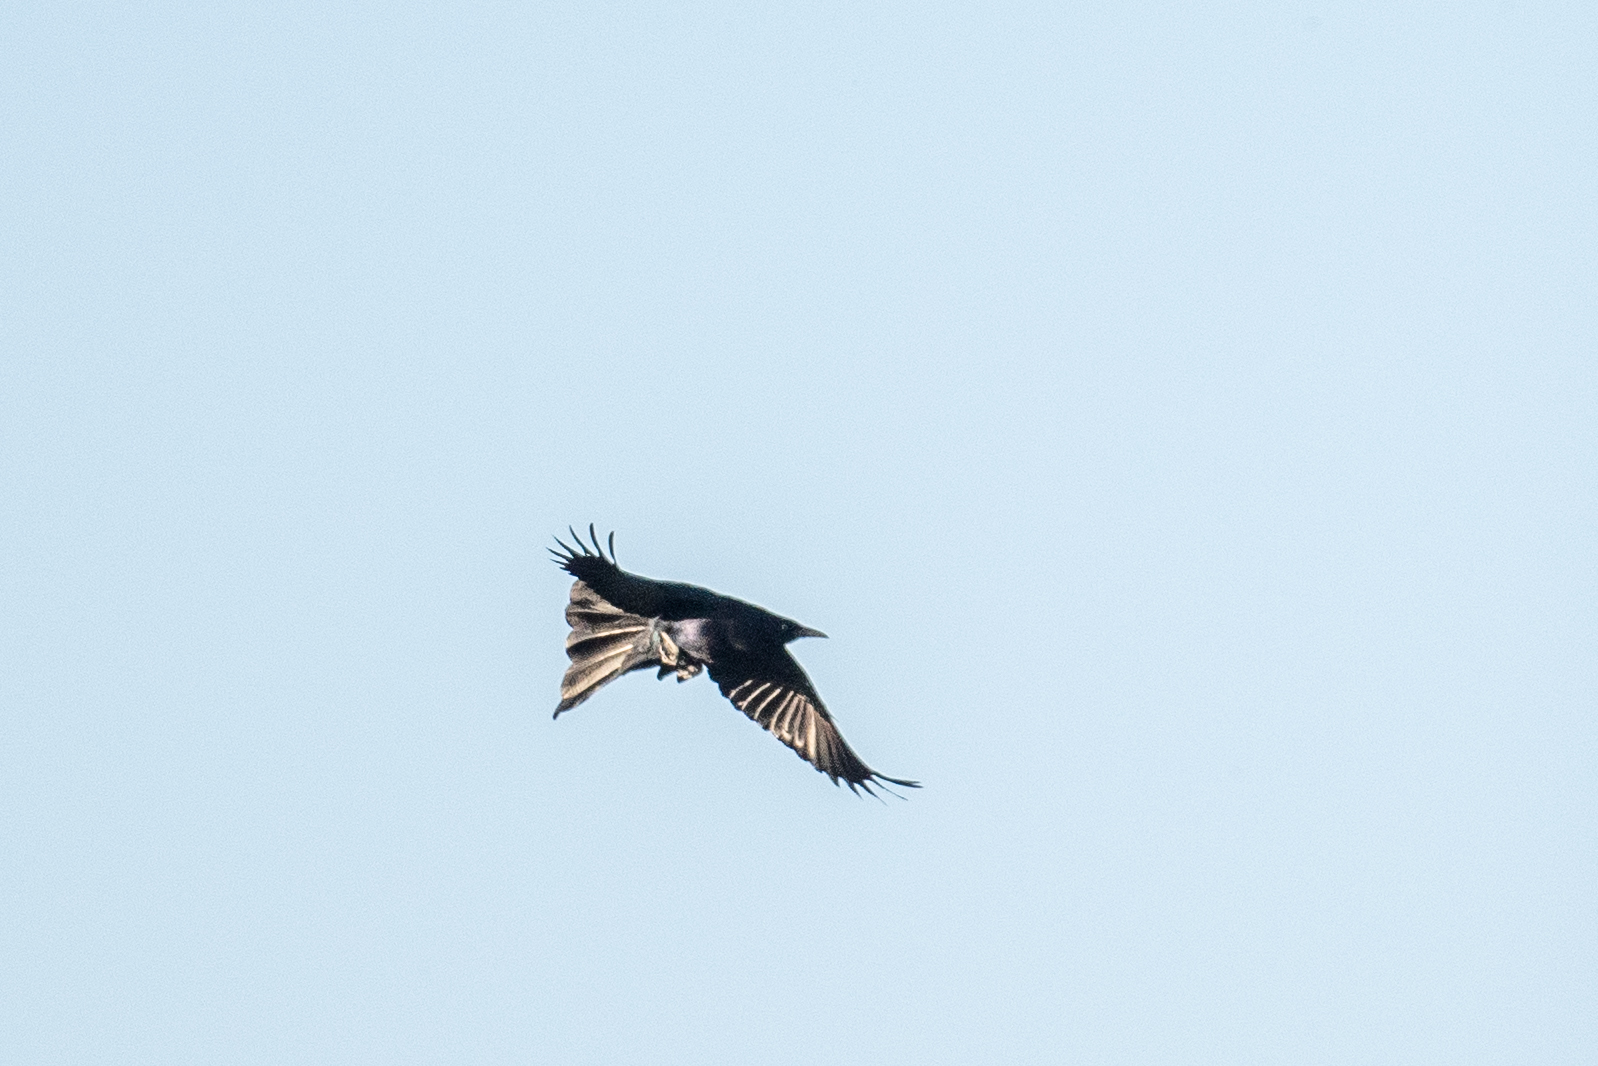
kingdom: Animalia
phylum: Chordata
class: Aves
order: Passeriformes
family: Icteridae
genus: Quiscalus
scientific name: Quiscalus mexicanus
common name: Great-tailed grackle
